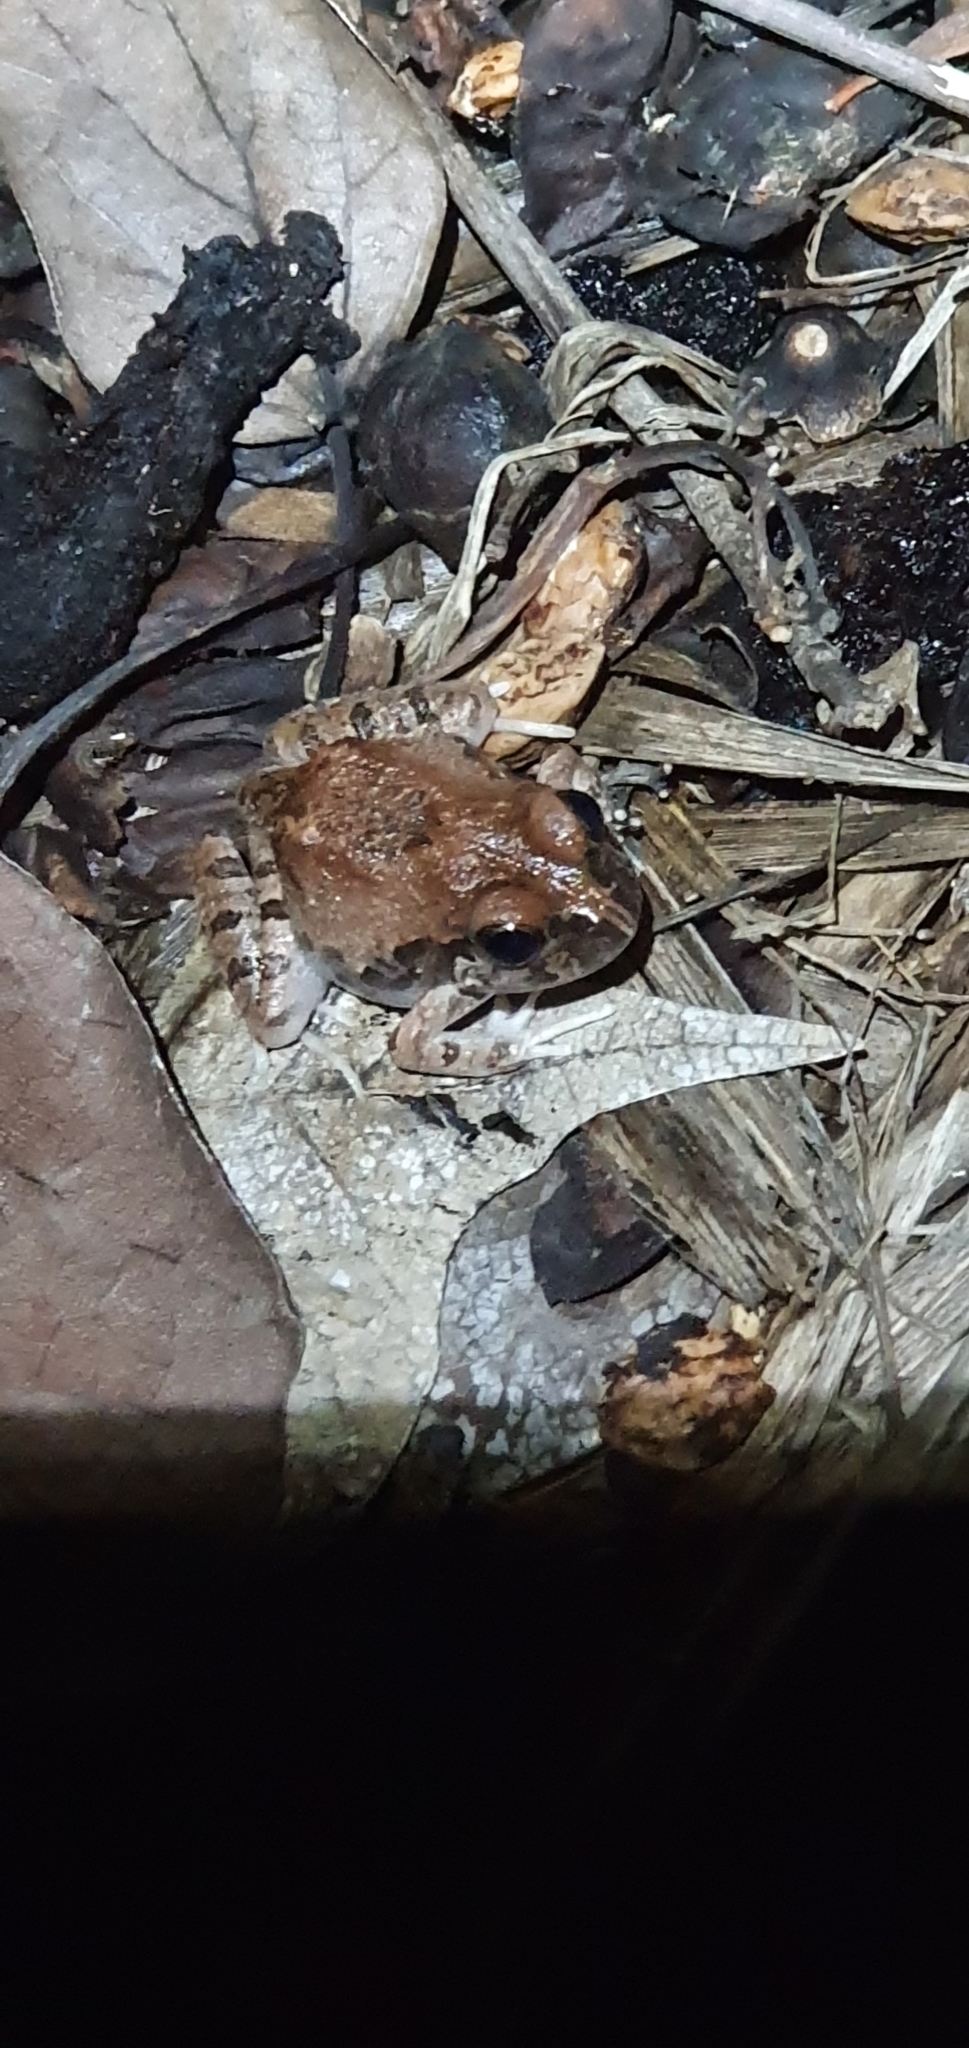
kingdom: Animalia
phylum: Chordata
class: Amphibia
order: Anura
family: Limnodynastidae
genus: Platyplectrum
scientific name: Platyplectrum ornatum
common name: Ornate burrowing frog
